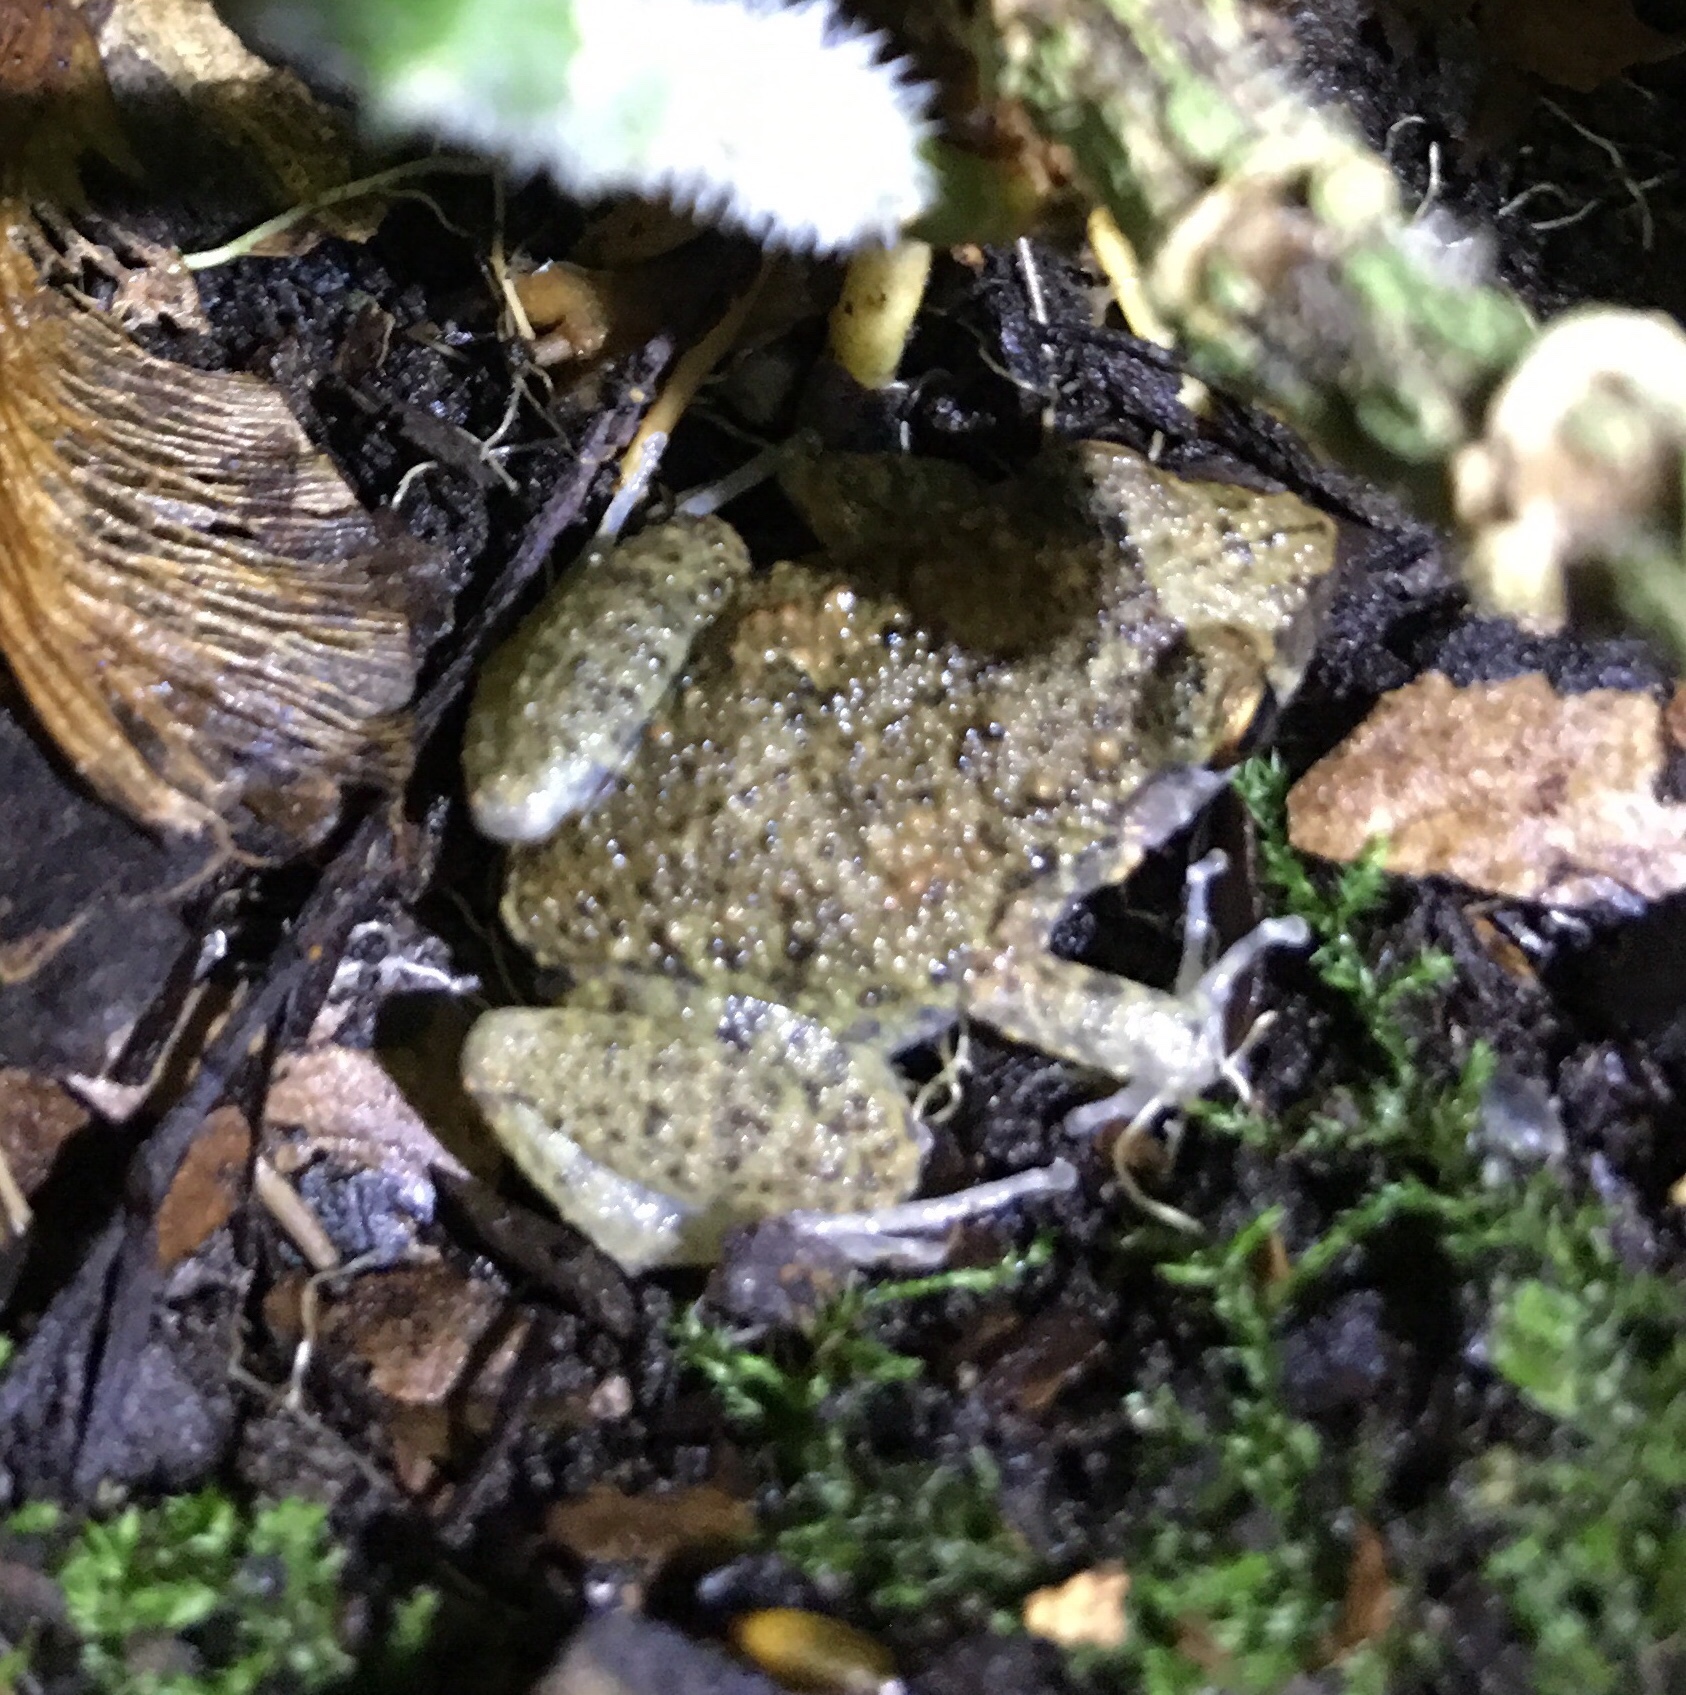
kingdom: Animalia
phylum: Chordata
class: Amphibia
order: Anura
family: Eleutherodactylidae
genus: Eleutherodactylus
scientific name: Eleutherodactylus planirostris
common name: Greenhouse frog
